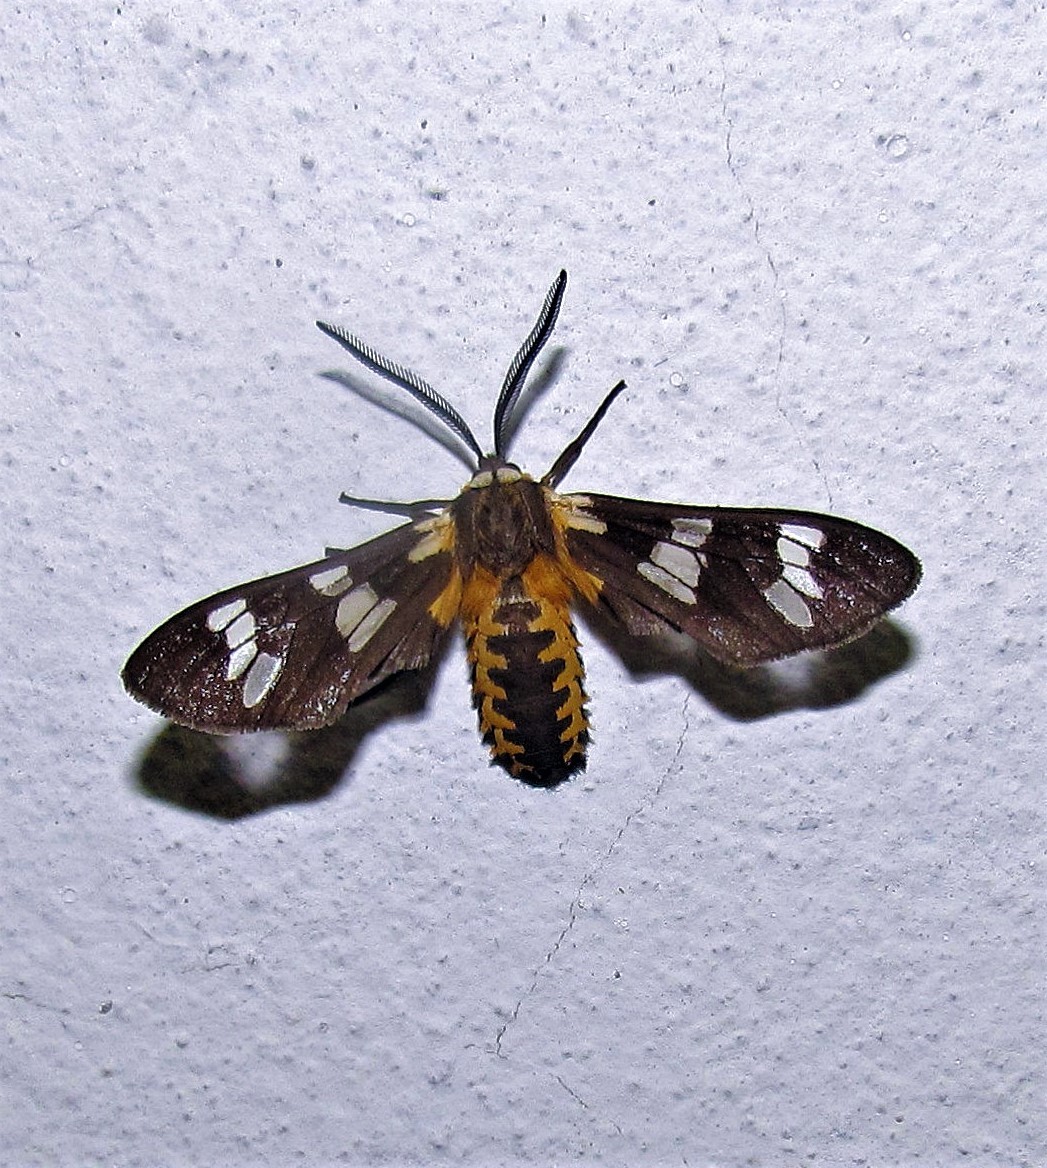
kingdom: Animalia
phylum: Arthropoda
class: Insecta
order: Lepidoptera
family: Erebidae
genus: Eurata
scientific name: Eurata
